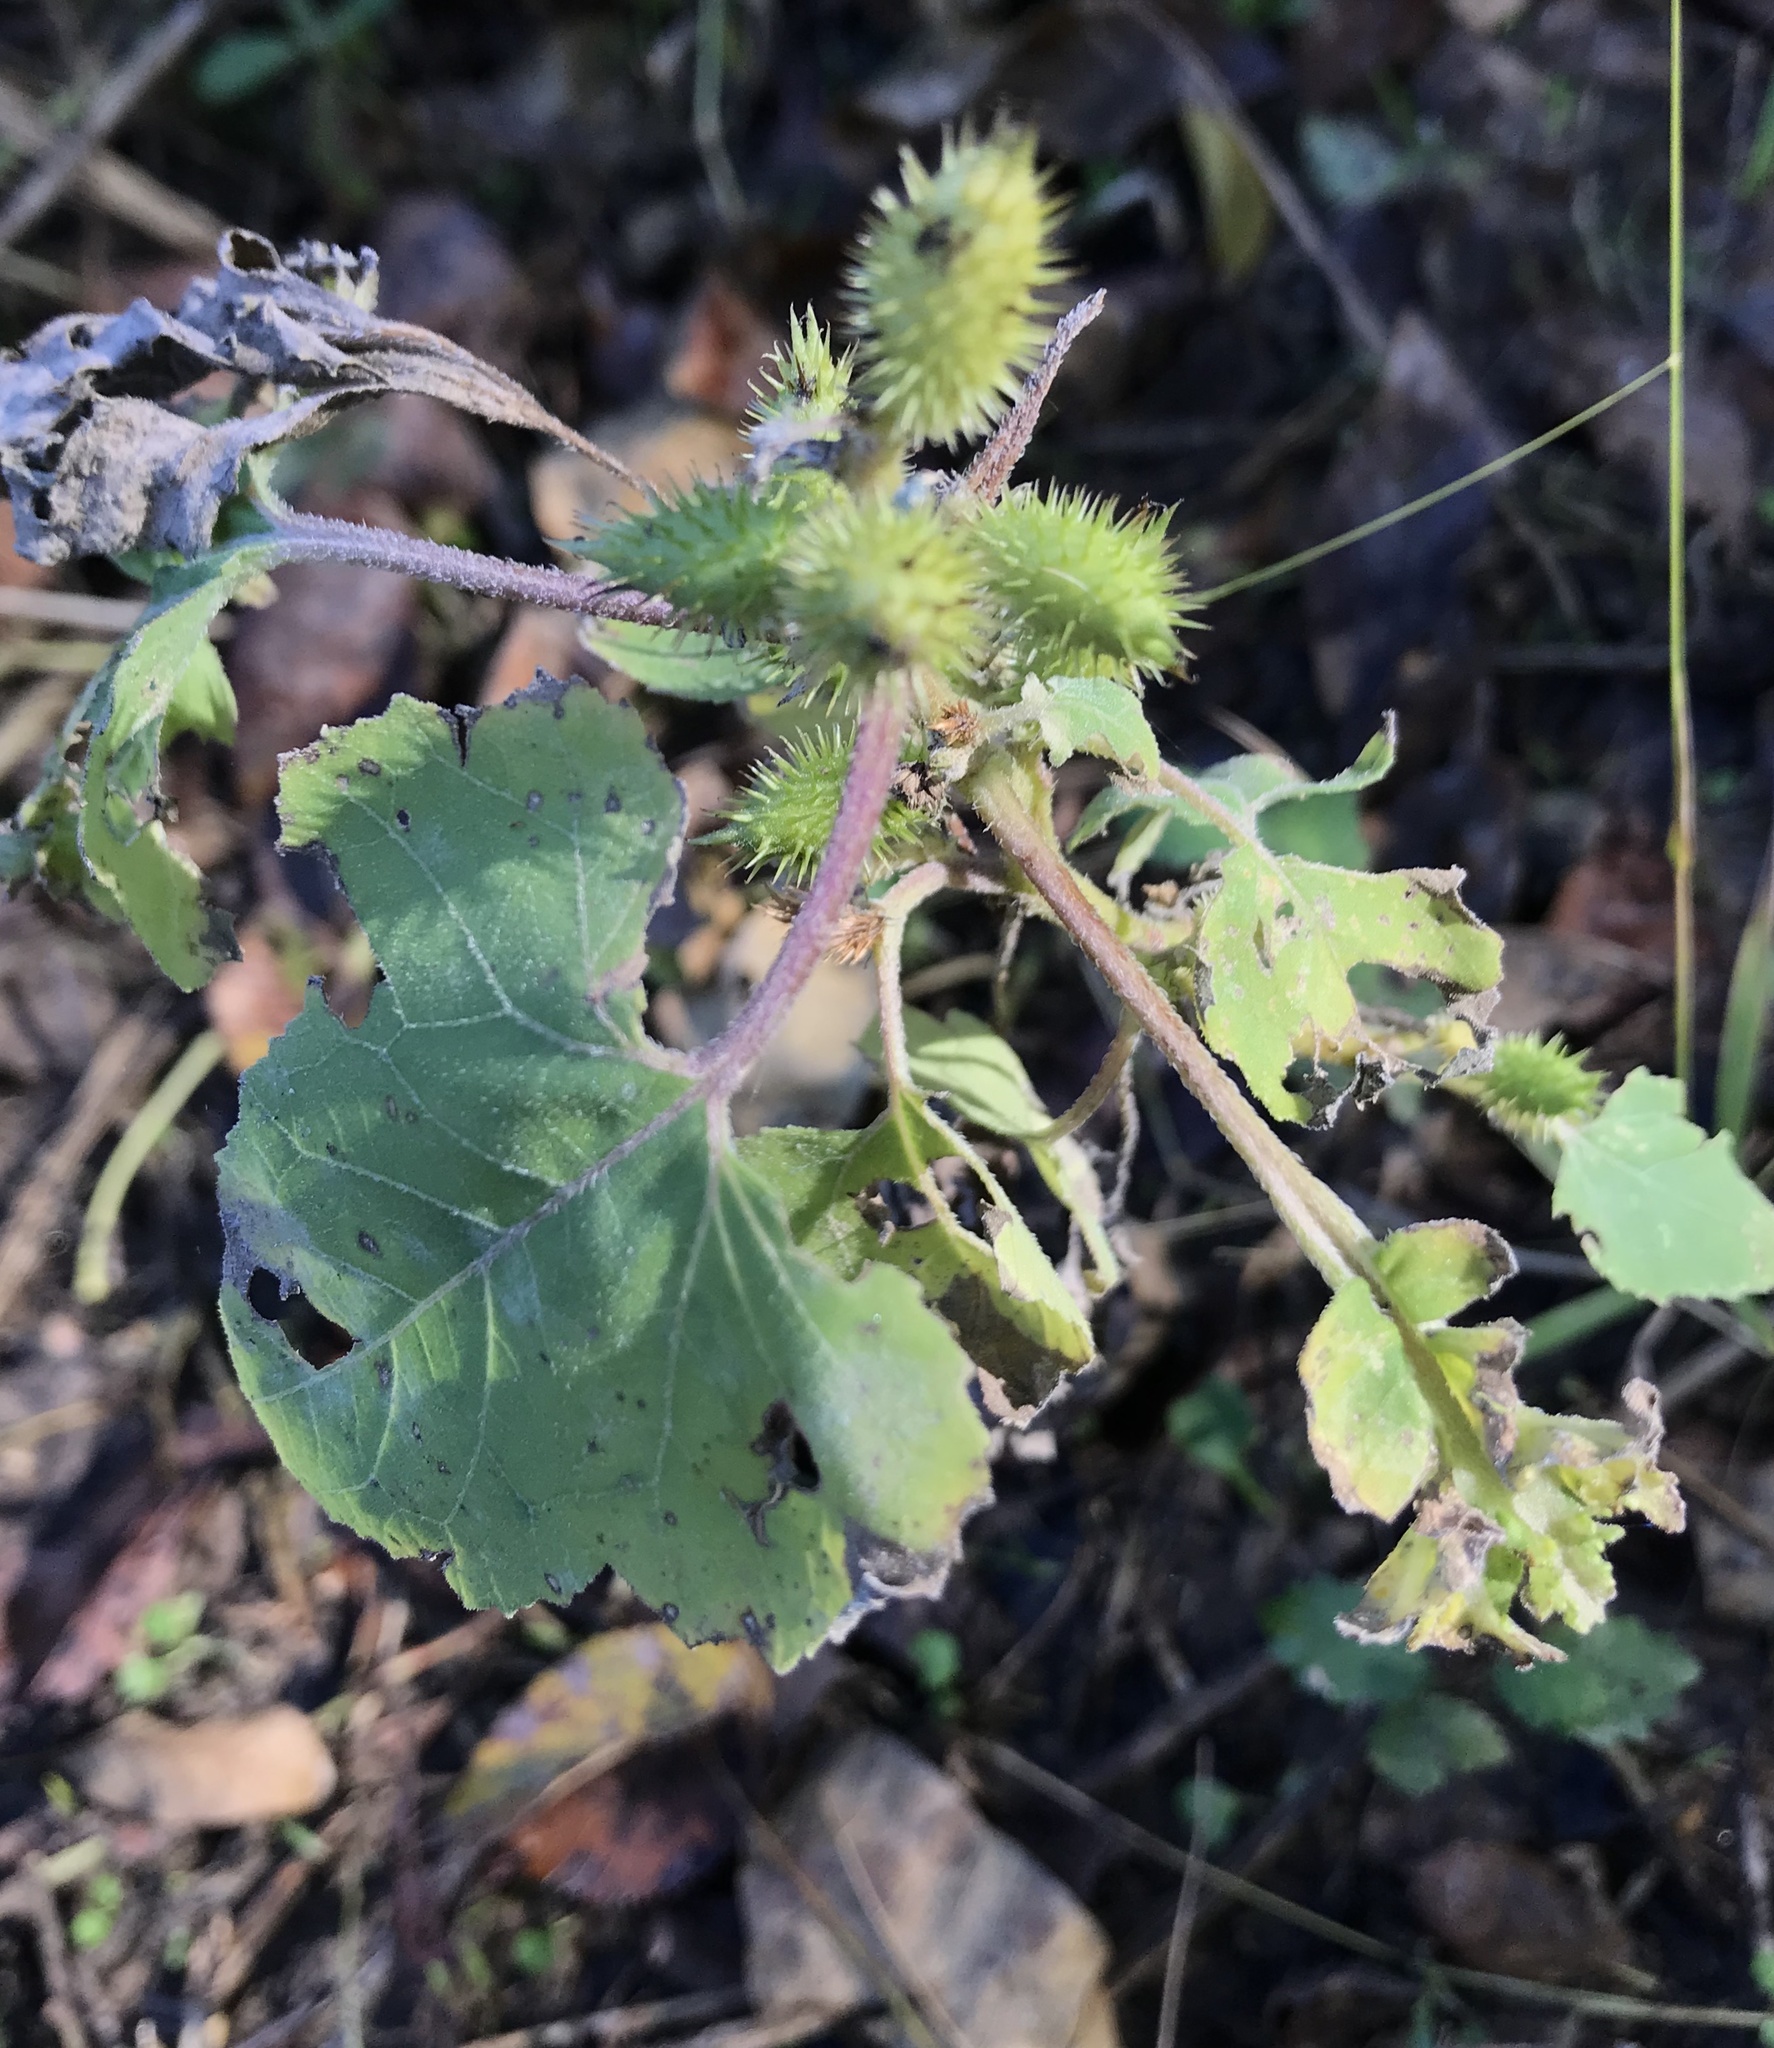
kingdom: Plantae
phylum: Tracheophyta
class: Magnoliopsida
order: Asterales
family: Asteraceae
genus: Xanthium
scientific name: Xanthium strumarium
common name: Rough cocklebur
